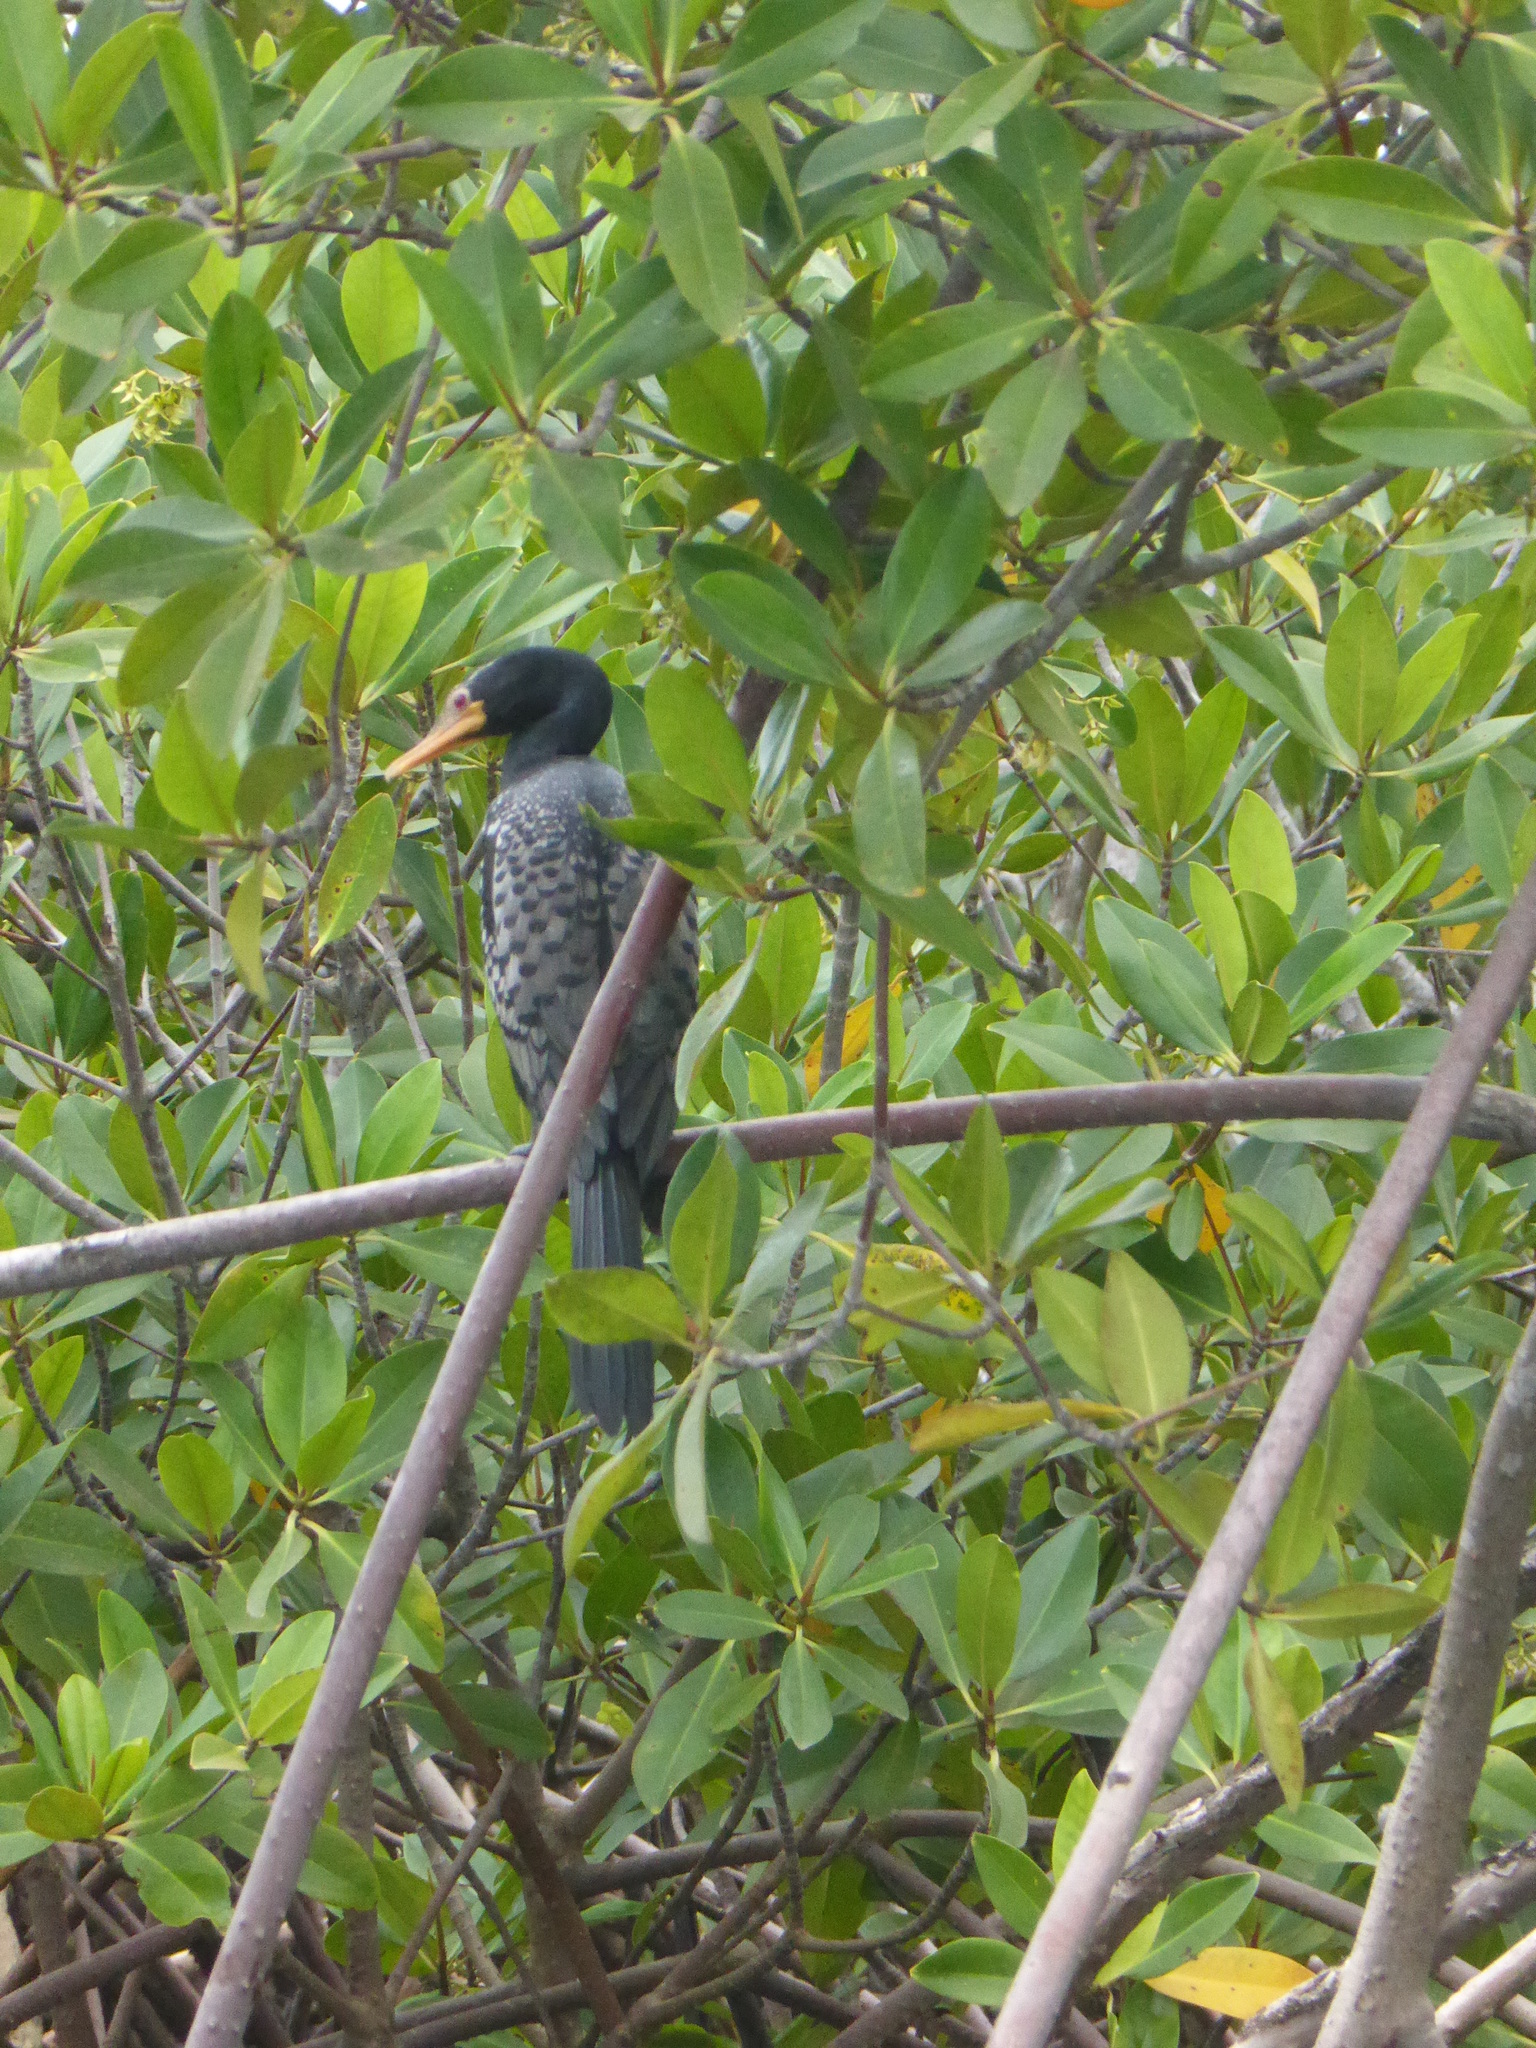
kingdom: Animalia
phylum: Chordata
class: Aves
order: Suliformes
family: Phalacrocoracidae
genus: Microcarbo
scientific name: Microcarbo africanus
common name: Long-tailed cormorant
